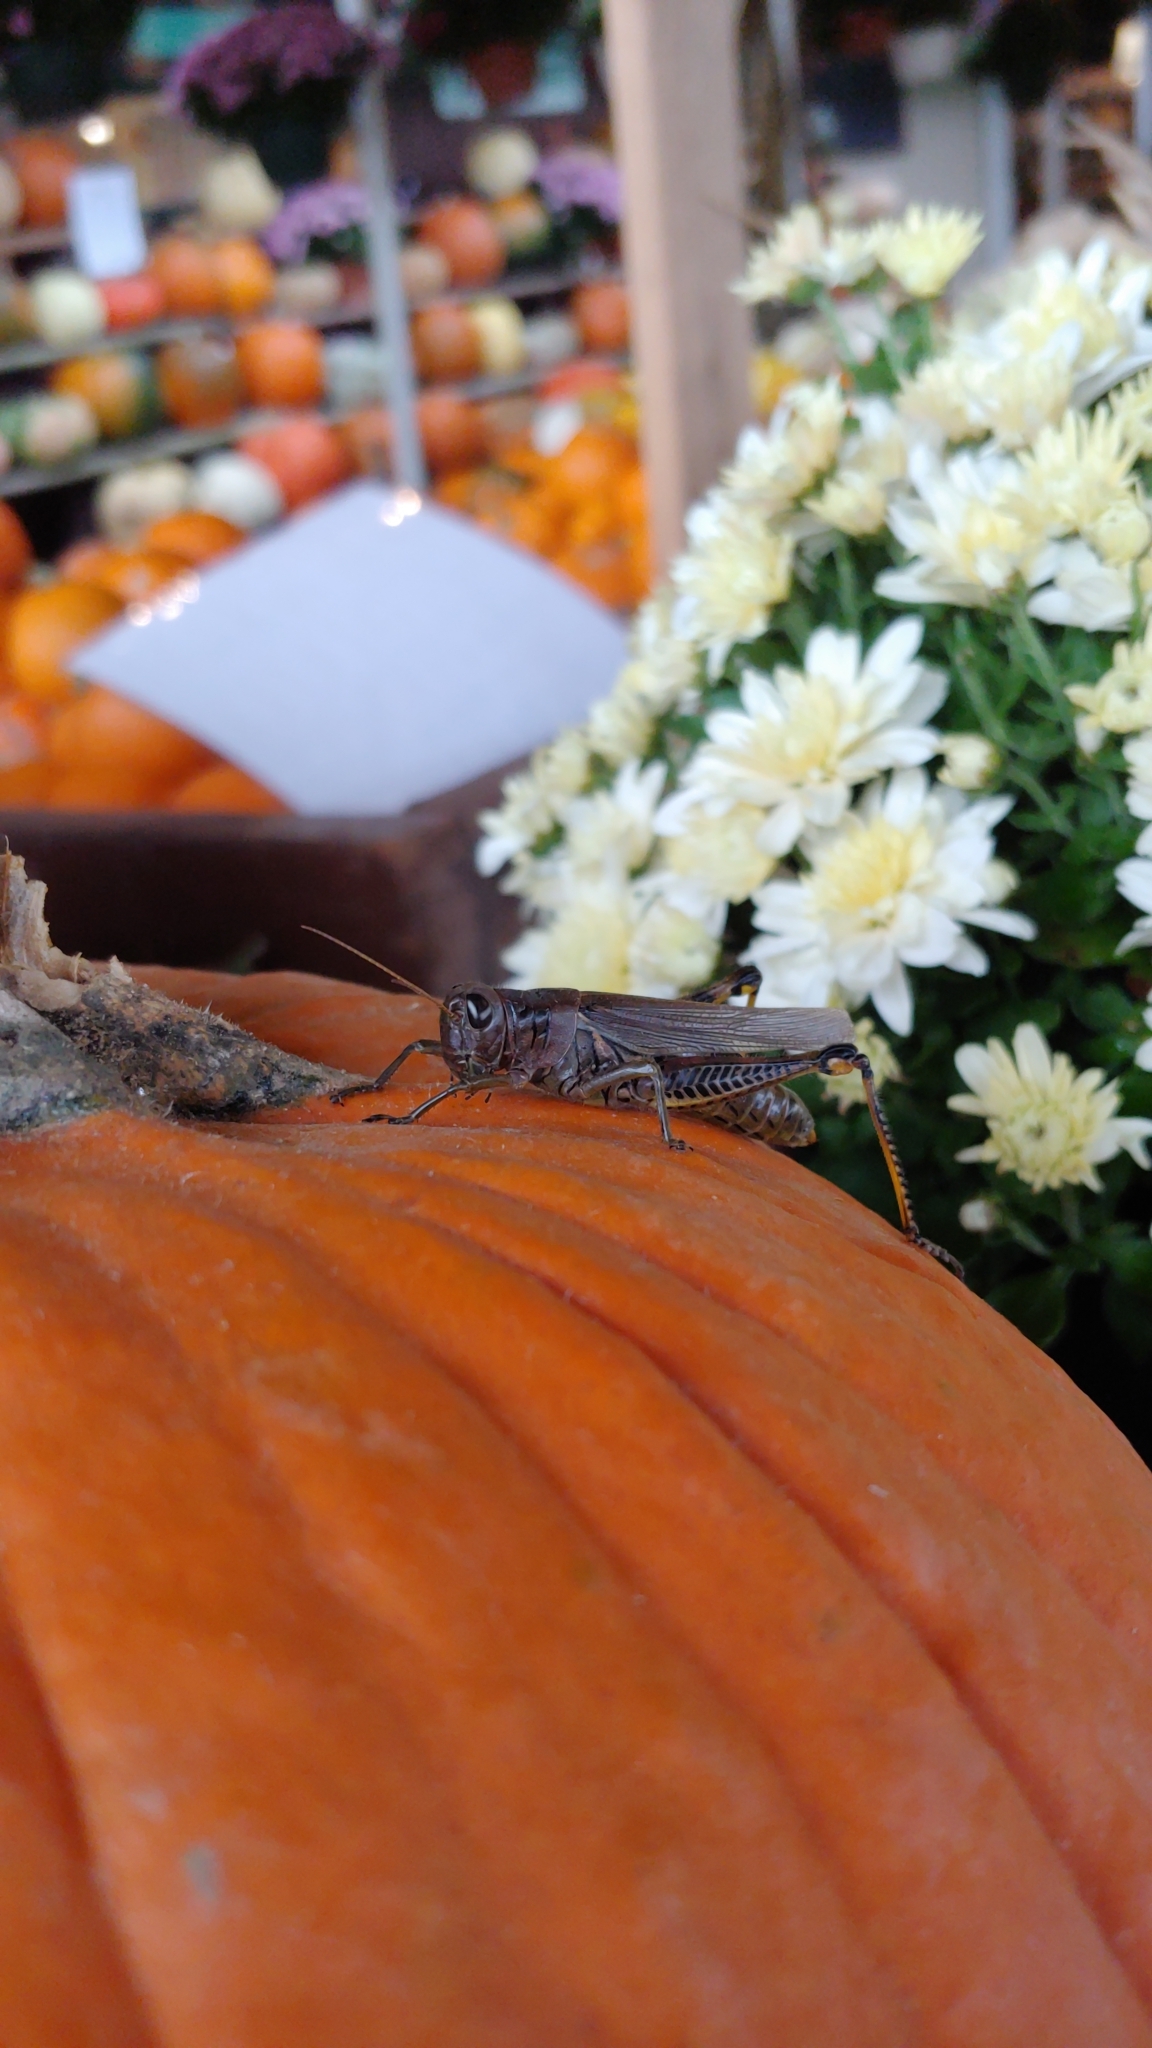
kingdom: Animalia
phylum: Arthropoda
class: Insecta
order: Orthoptera
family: Acrididae
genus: Melanoplus
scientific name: Melanoplus differentialis
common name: Differential grasshopper
